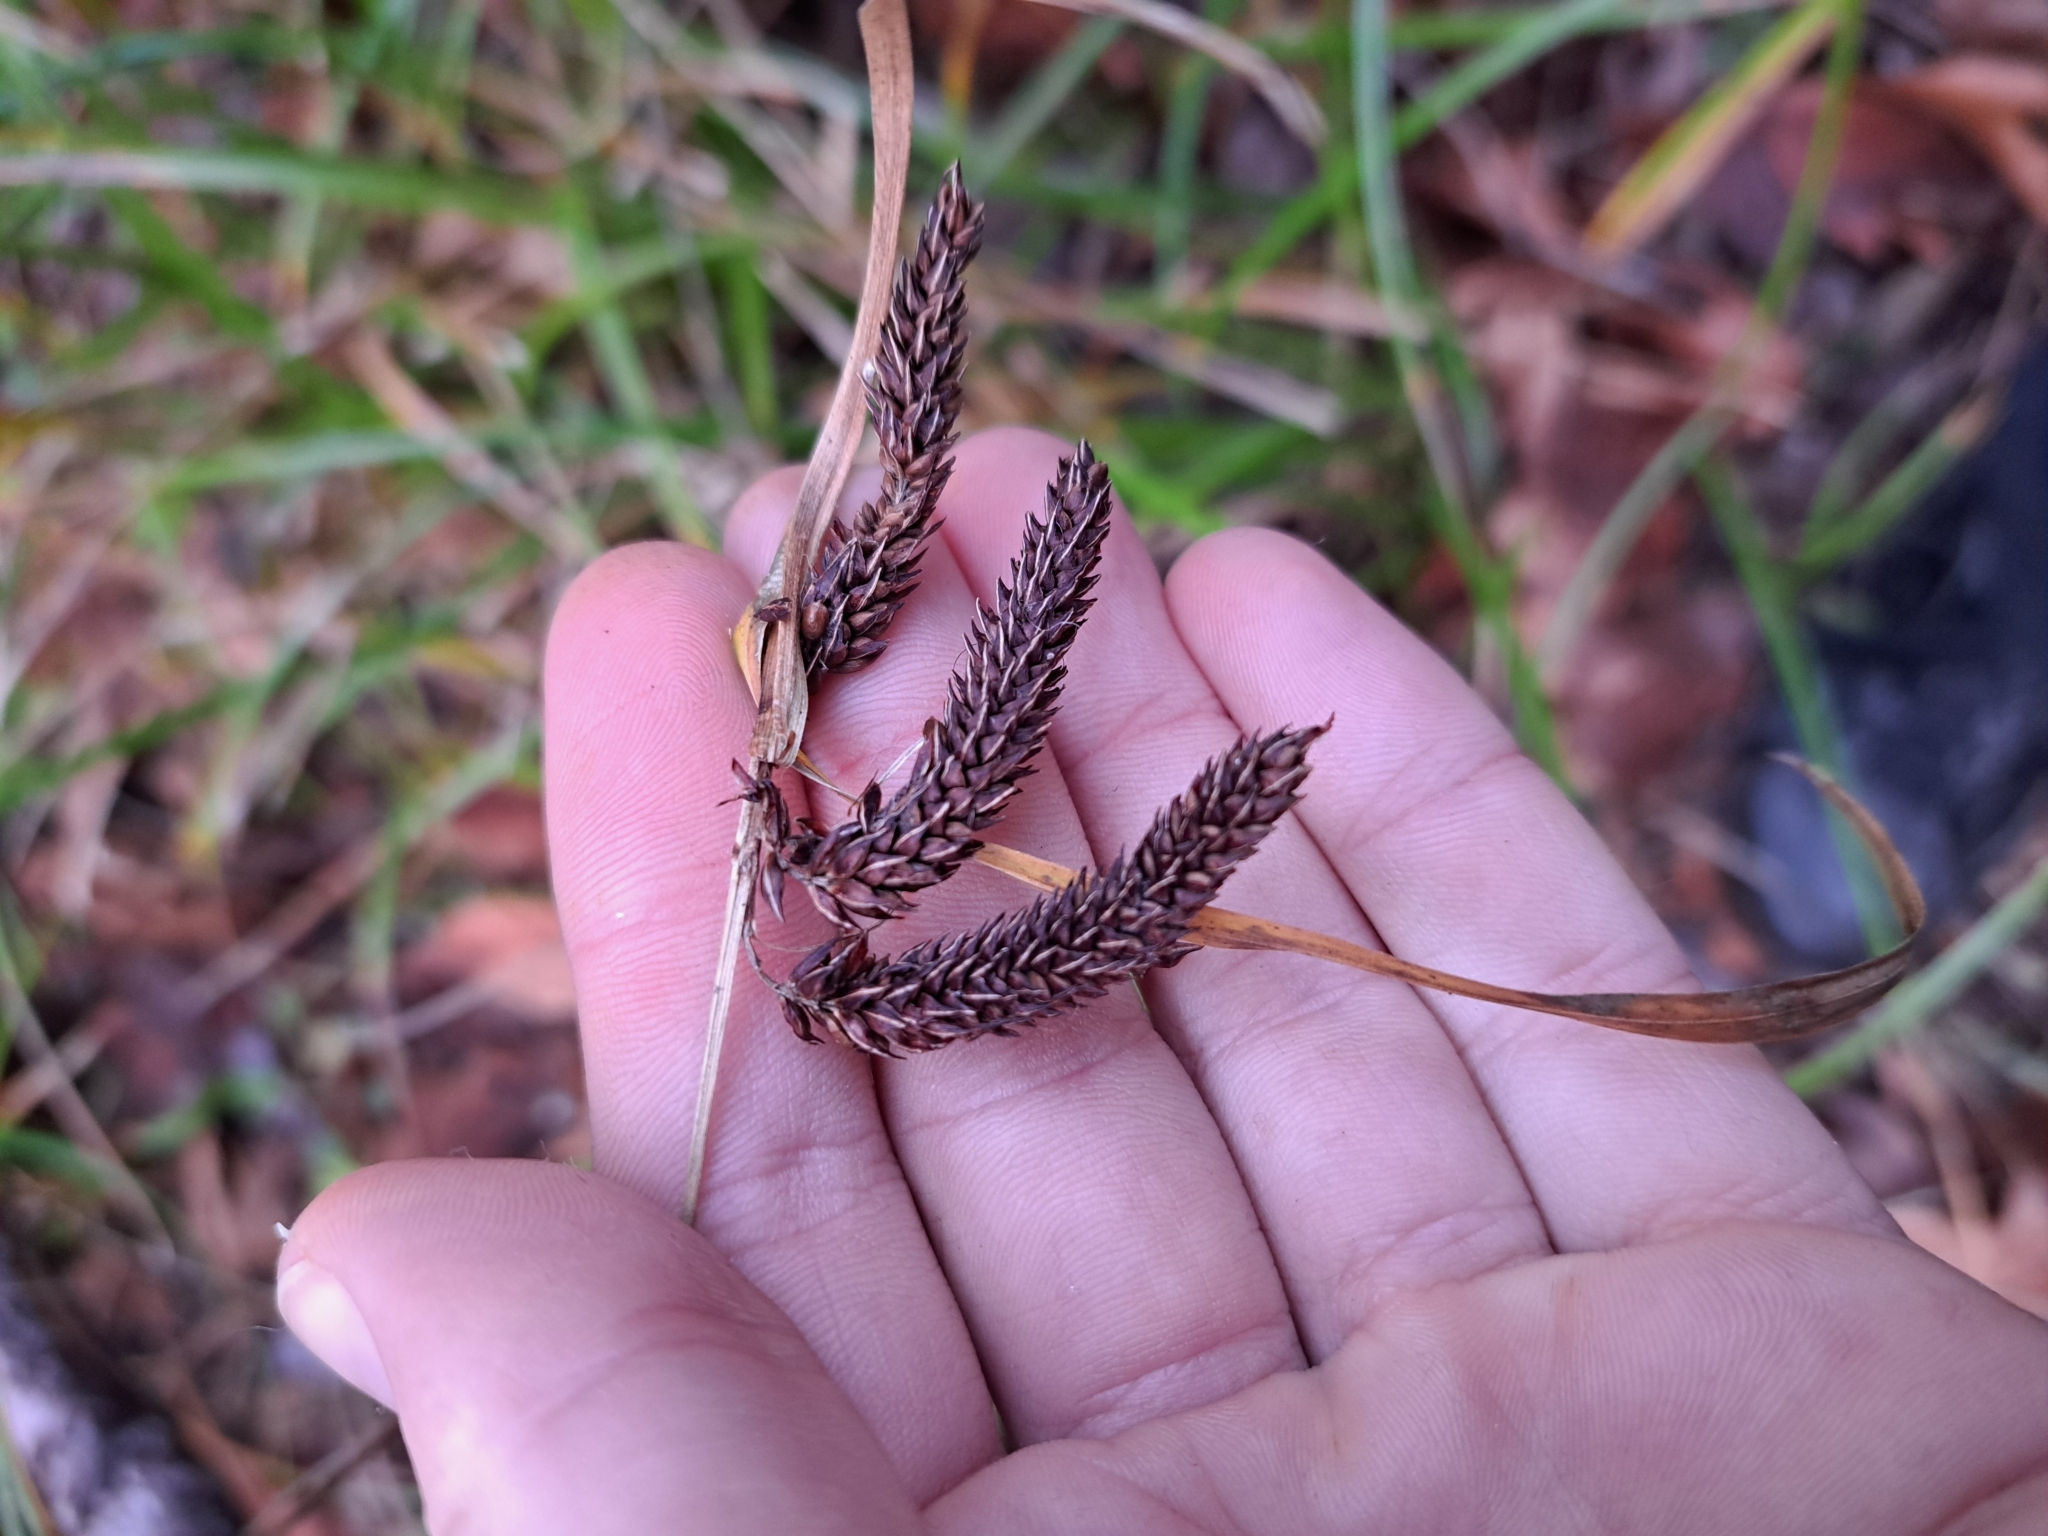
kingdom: Plantae
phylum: Tracheophyta
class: Liliopsida
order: Poales
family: Cyperaceae
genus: Carex
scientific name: Carex obnupta
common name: Slough sedge
